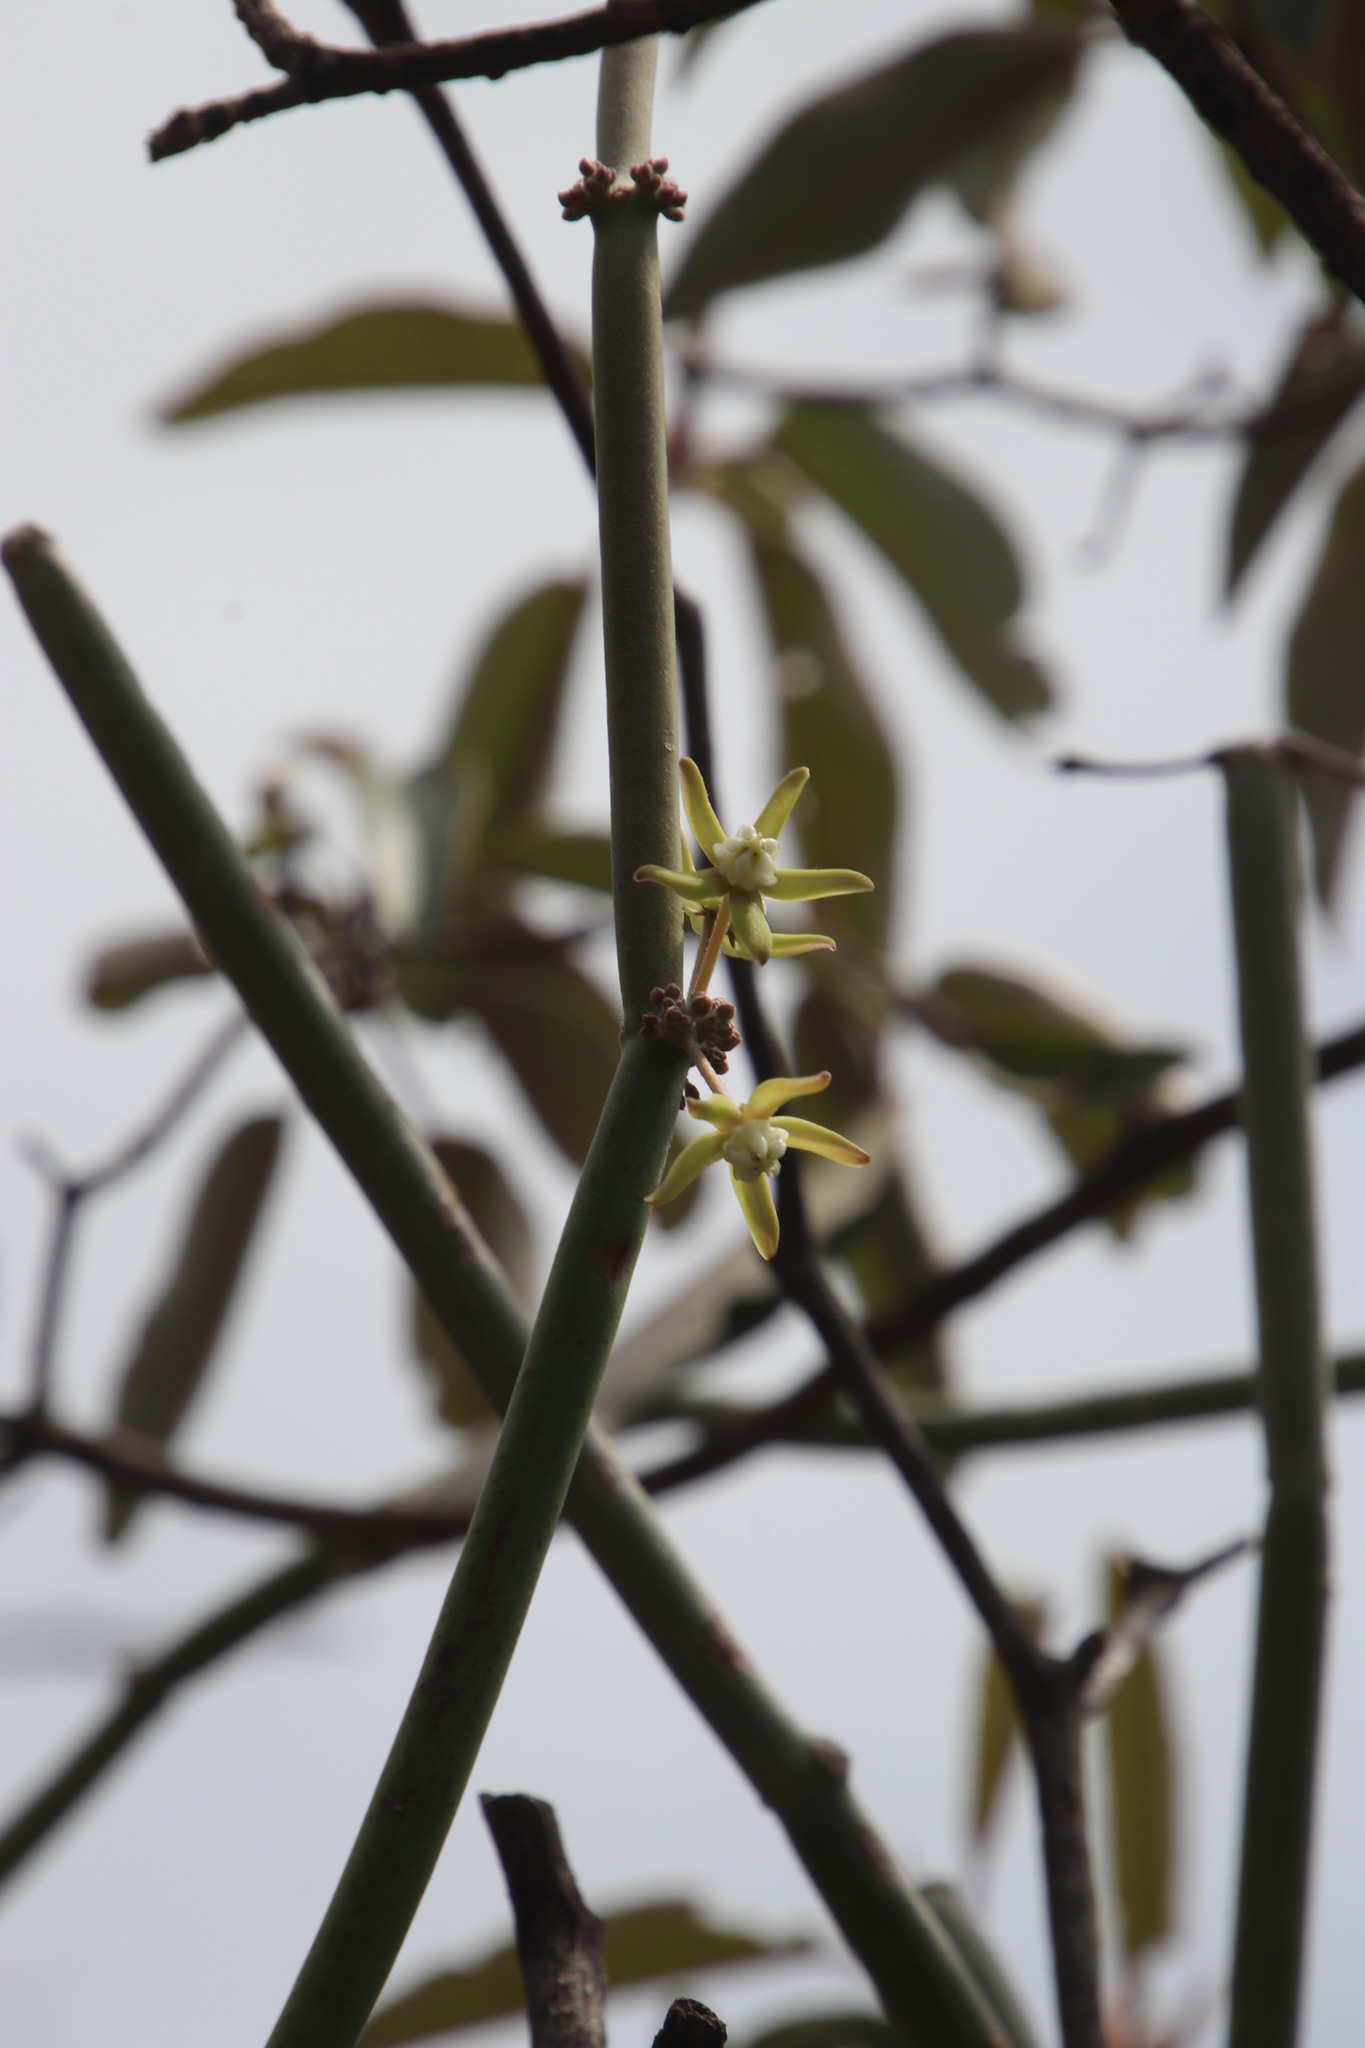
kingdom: Plantae
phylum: Tracheophyta
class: Magnoliopsida
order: Gentianales
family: Apocynaceae
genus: Cynanchum
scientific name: Cynanchum viminale
